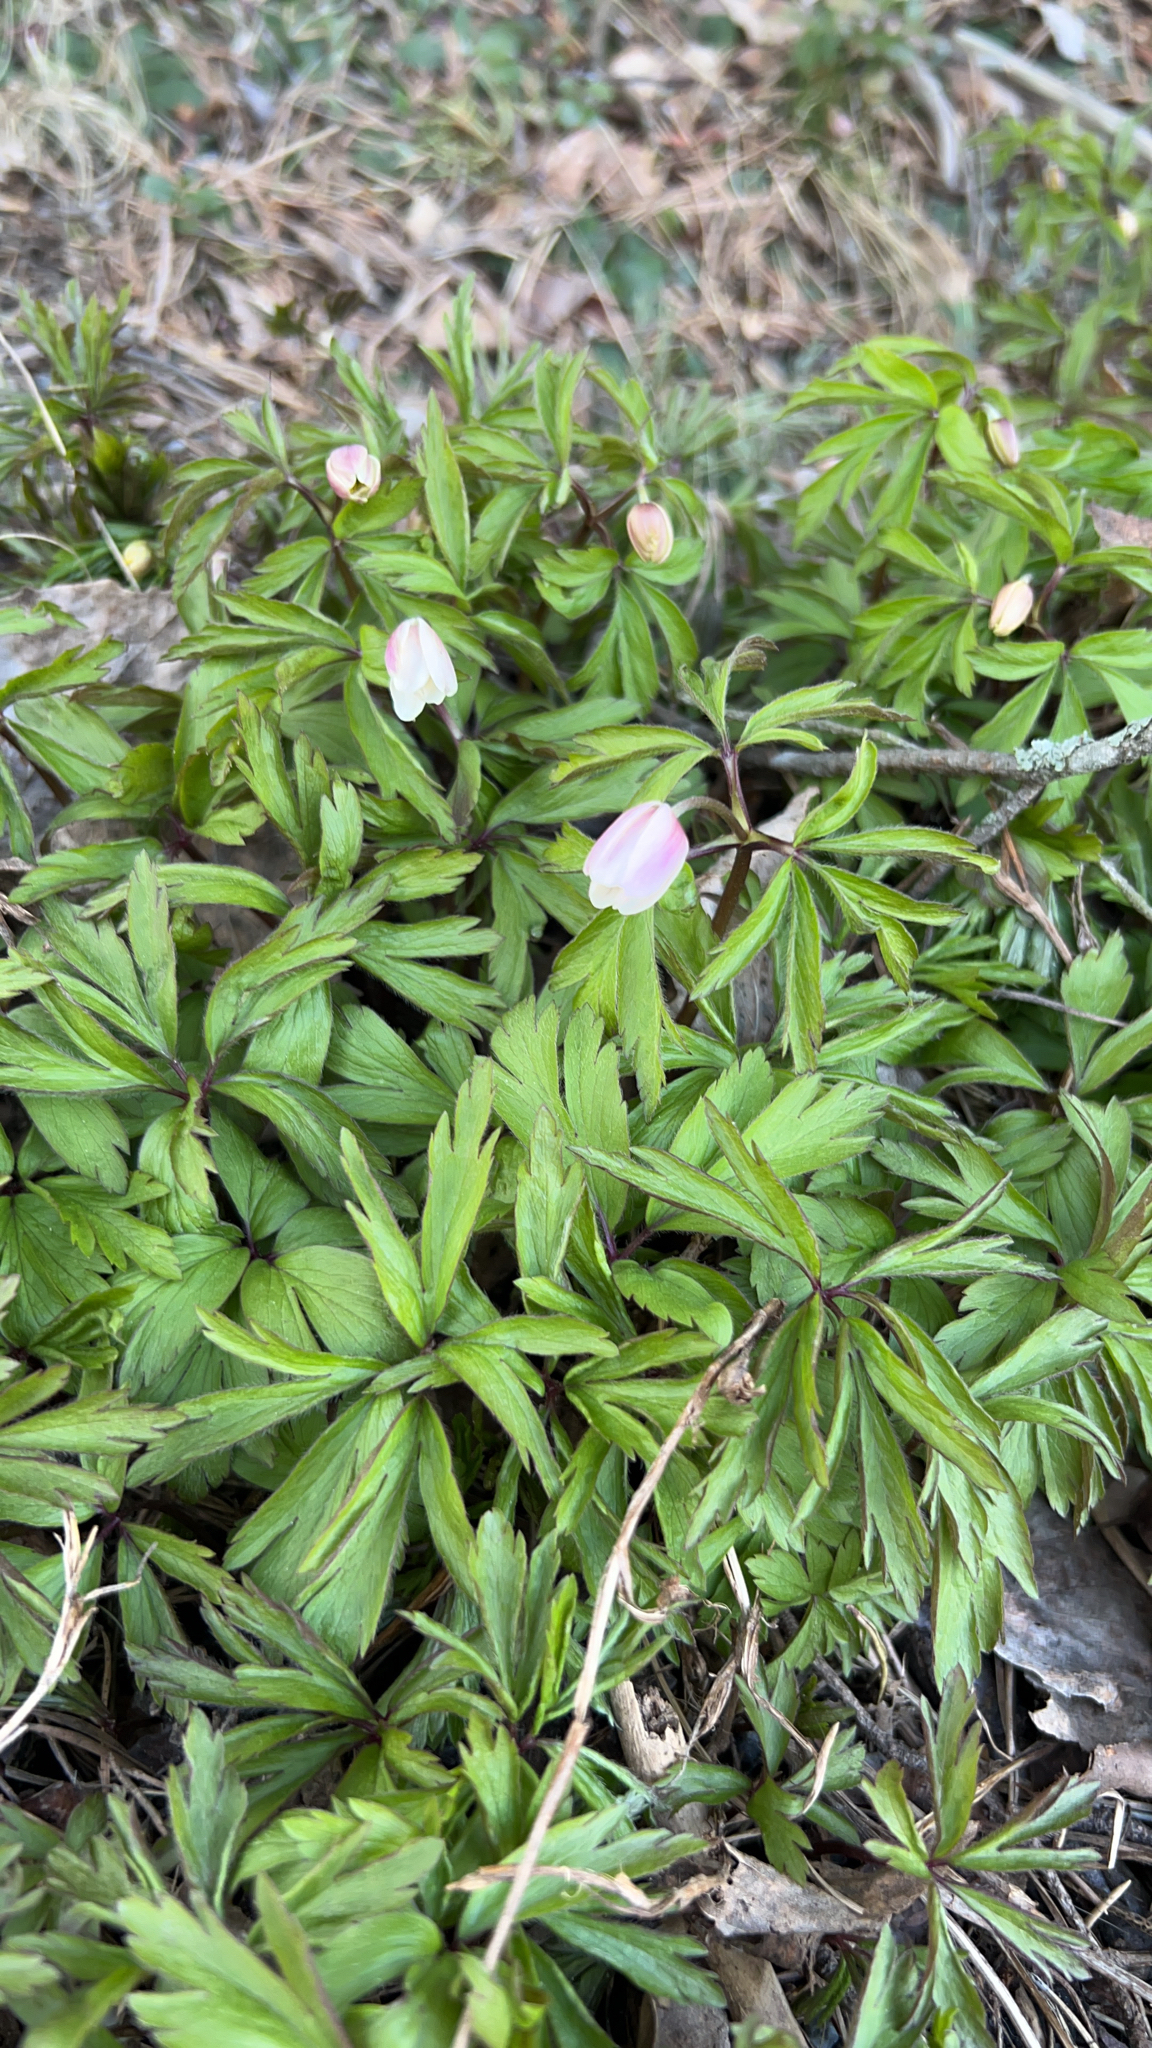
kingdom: Plantae
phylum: Tracheophyta
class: Magnoliopsida
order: Ranunculales
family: Ranunculaceae
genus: Anemone
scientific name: Anemone nemorosa
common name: Wood anemone
